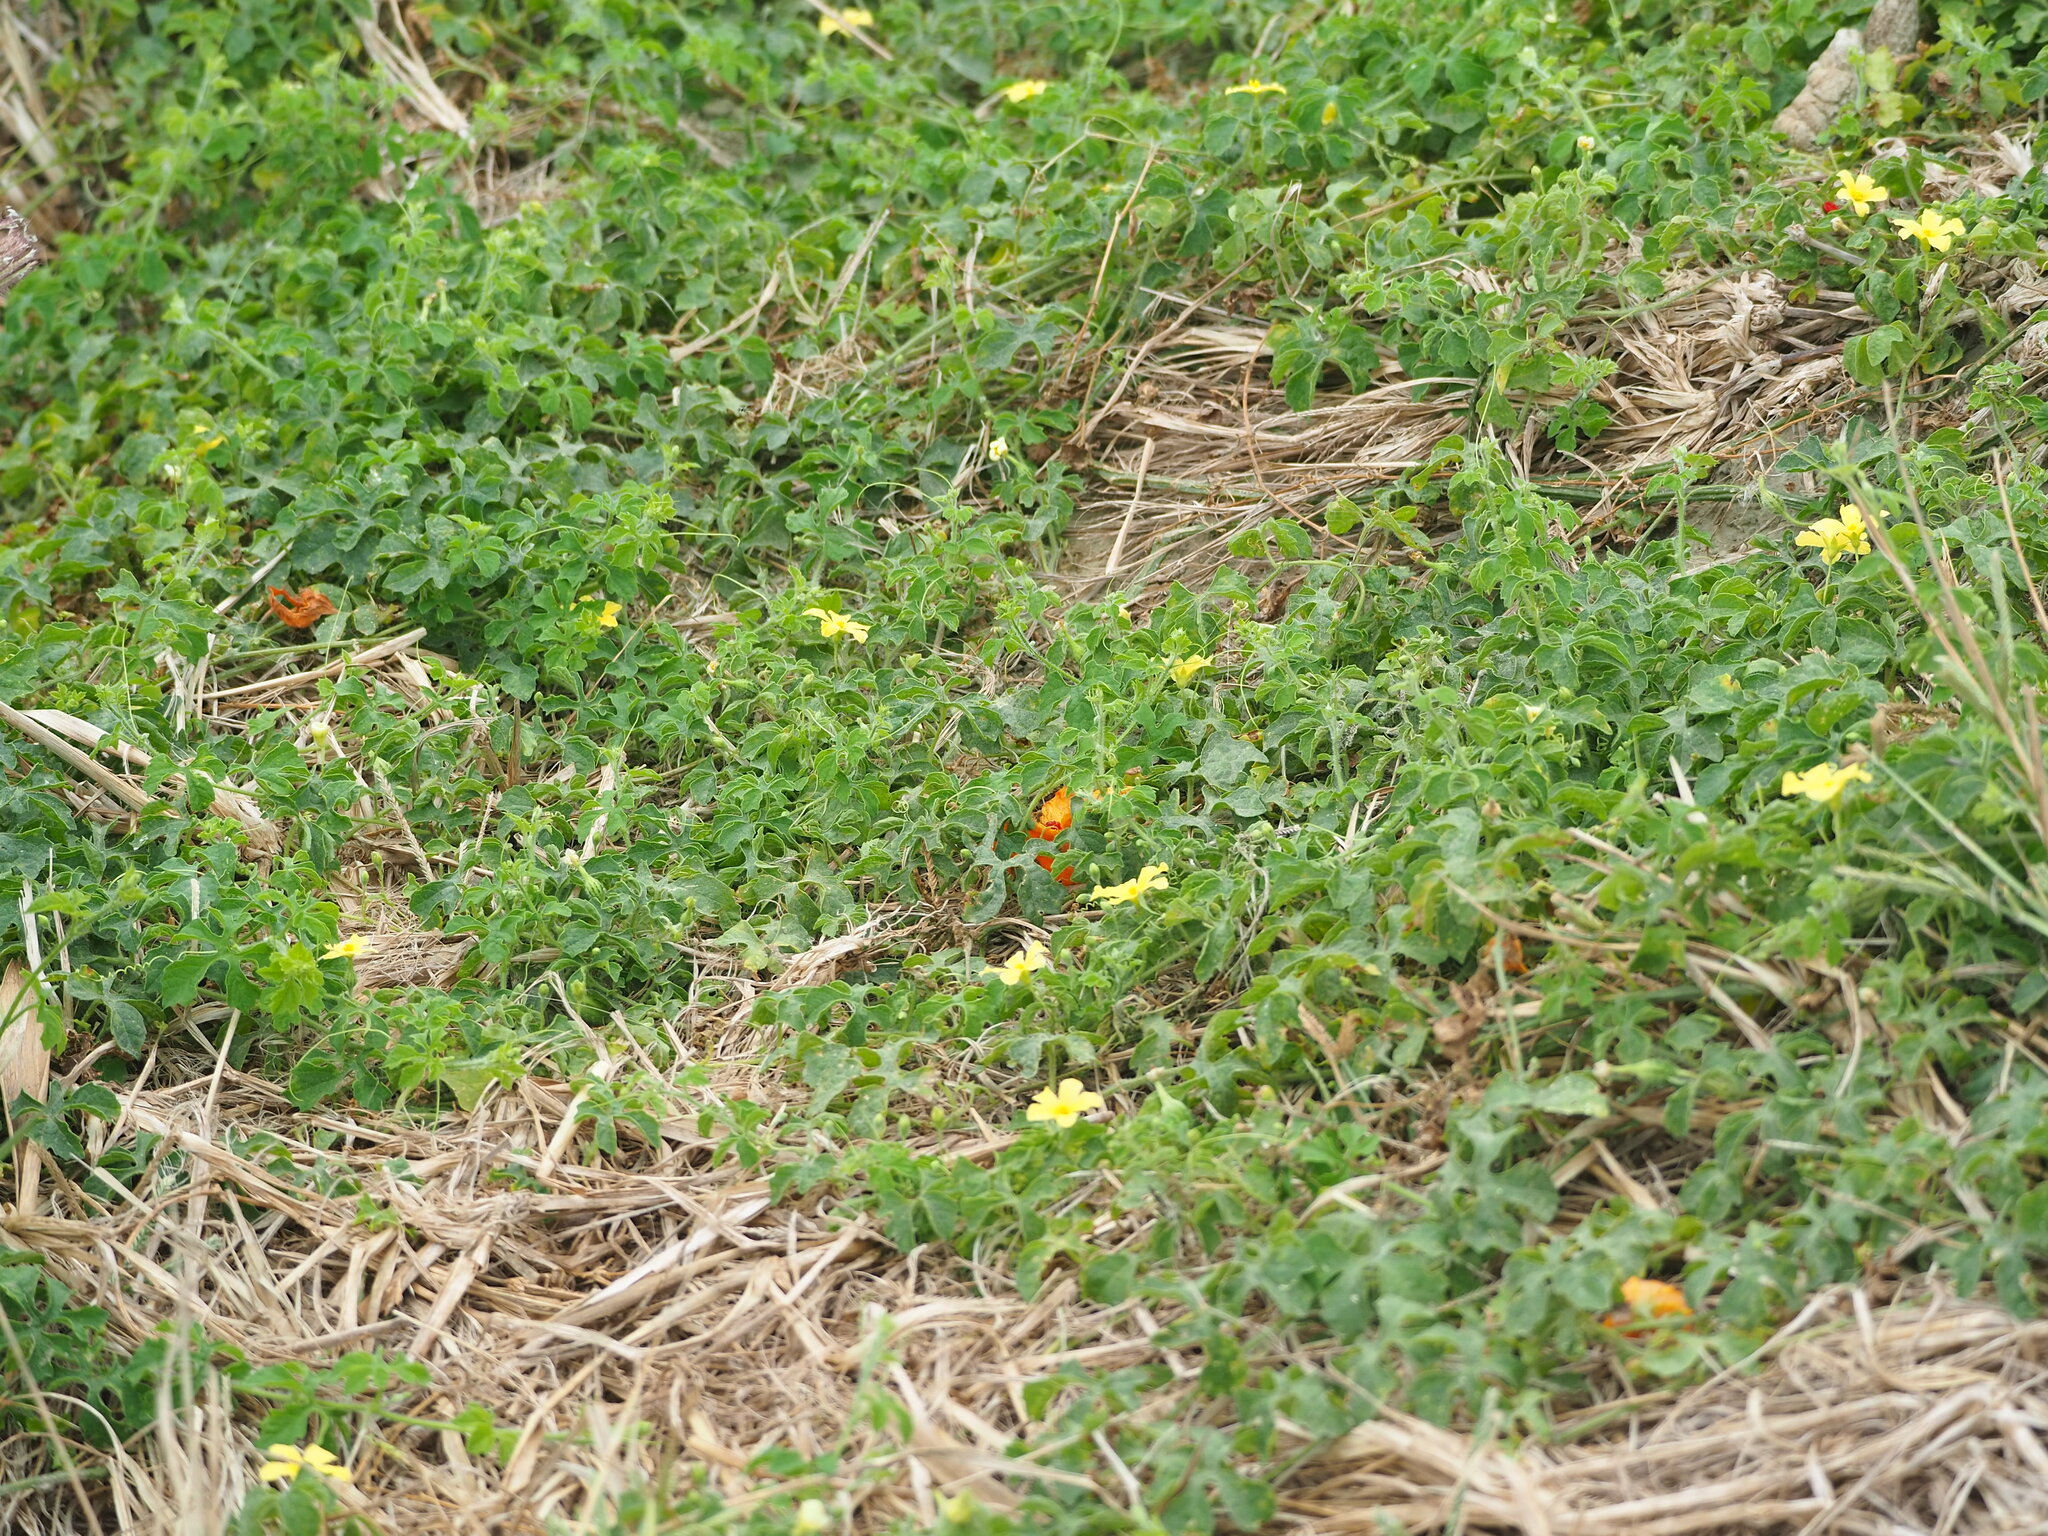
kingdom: Plantae
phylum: Tracheophyta
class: Magnoliopsida
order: Cucurbitales
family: Cucurbitaceae
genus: Momordica
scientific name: Momordica charantia
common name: Balsampear
